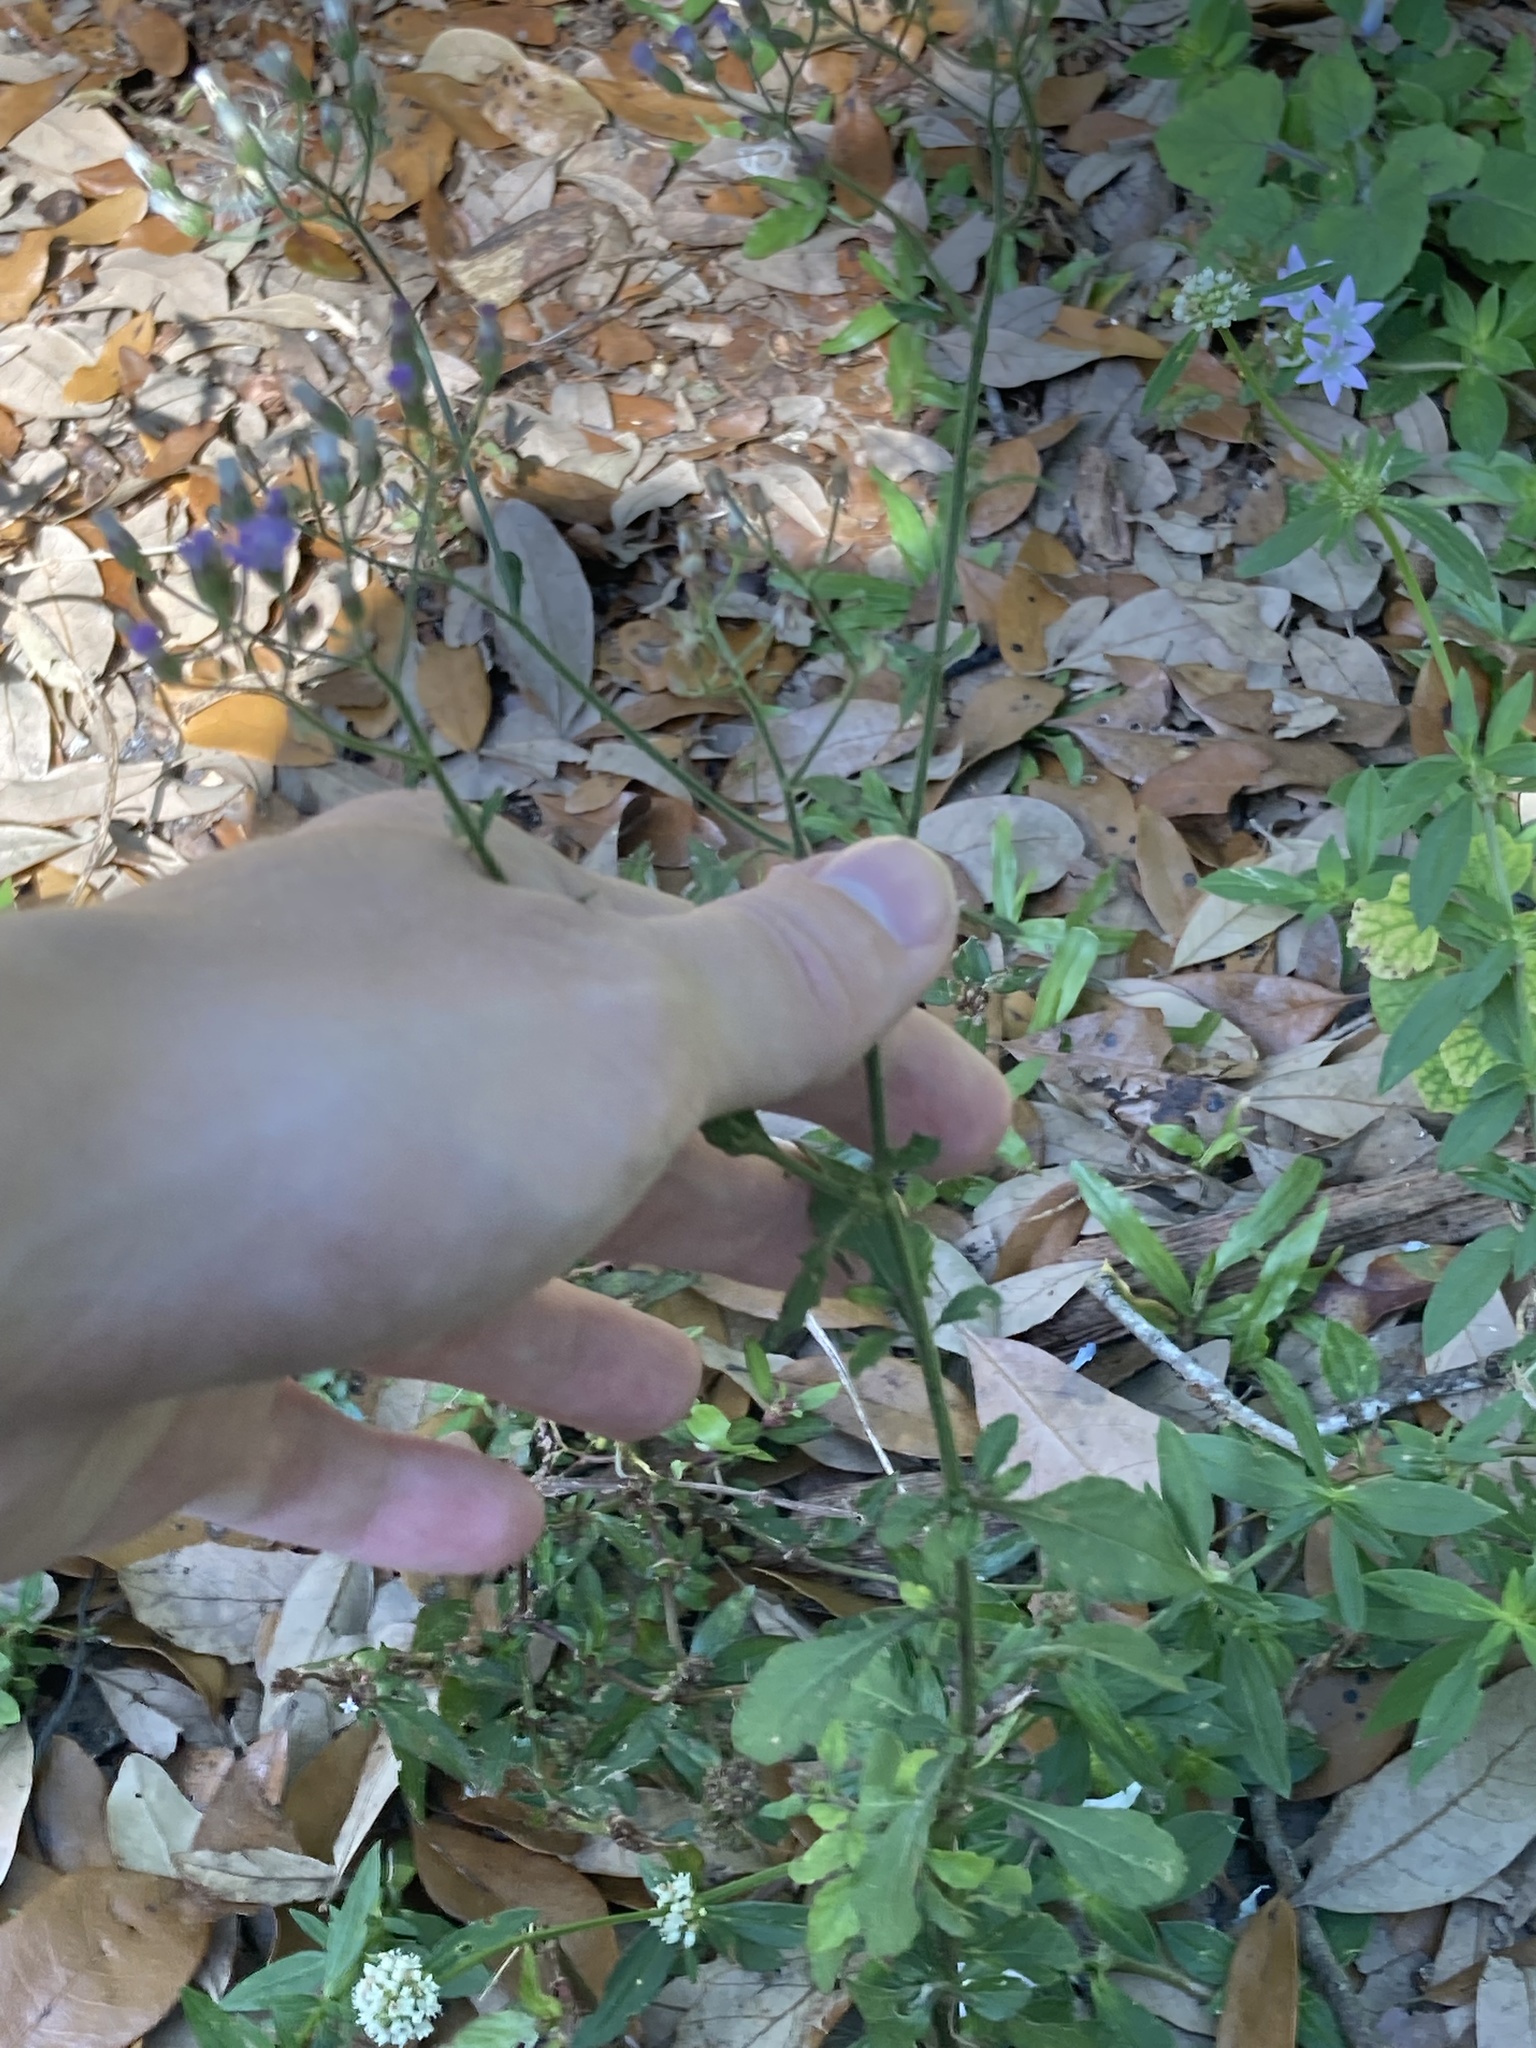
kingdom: Plantae
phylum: Tracheophyta
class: Magnoliopsida
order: Asterales
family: Asteraceae
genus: Cyanthillium
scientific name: Cyanthillium cinereum
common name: Little ironweed
